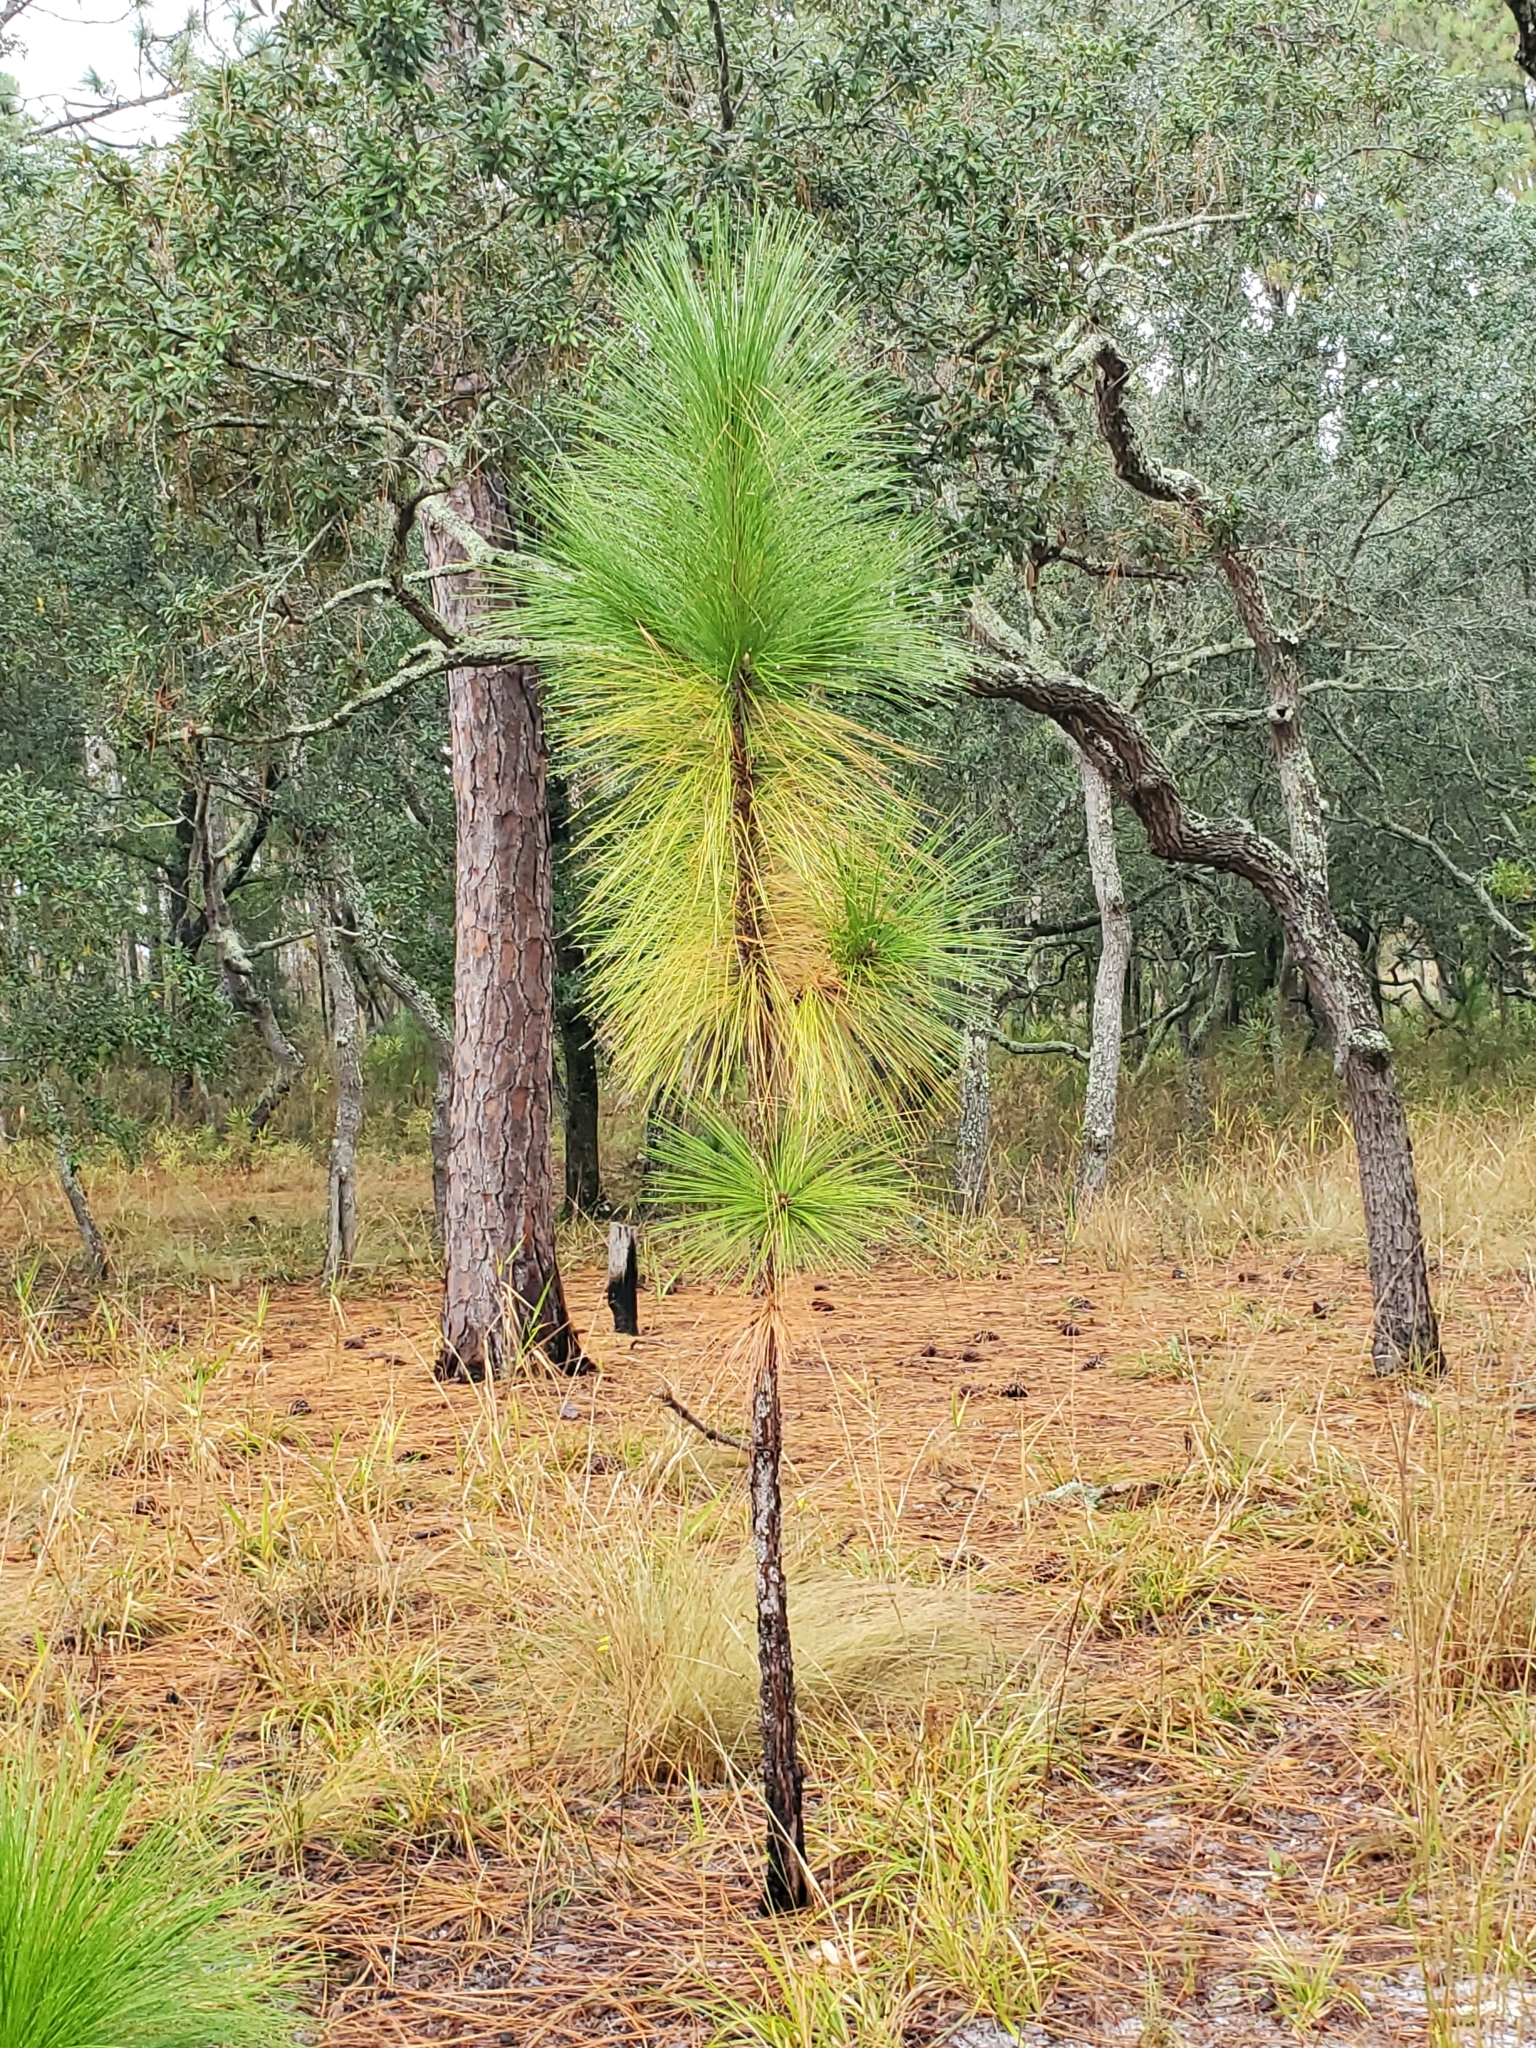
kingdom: Plantae
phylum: Tracheophyta
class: Pinopsida
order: Pinales
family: Pinaceae
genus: Pinus
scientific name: Pinus palustris
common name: Longleaf pine
